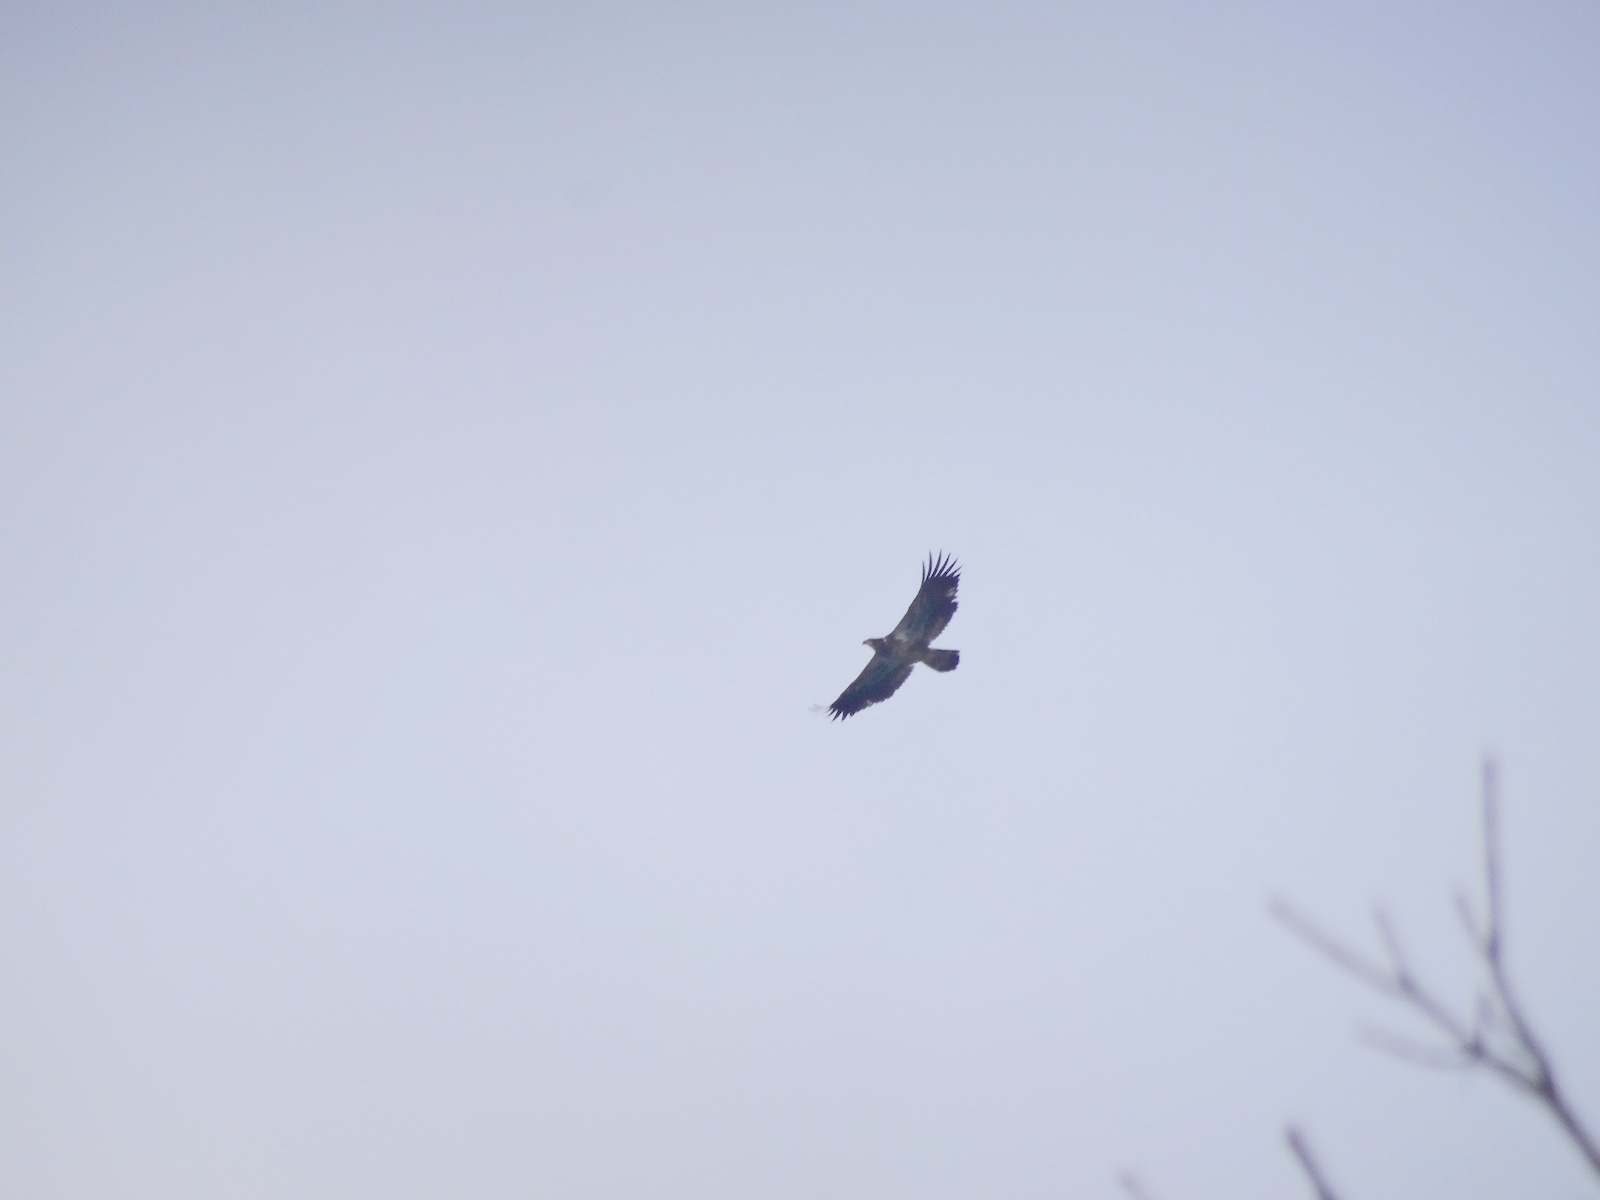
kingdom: Animalia
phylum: Chordata
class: Aves
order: Accipitriformes
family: Accipitridae
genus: Haliaeetus
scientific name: Haliaeetus leucocephalus
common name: Bald eagle
